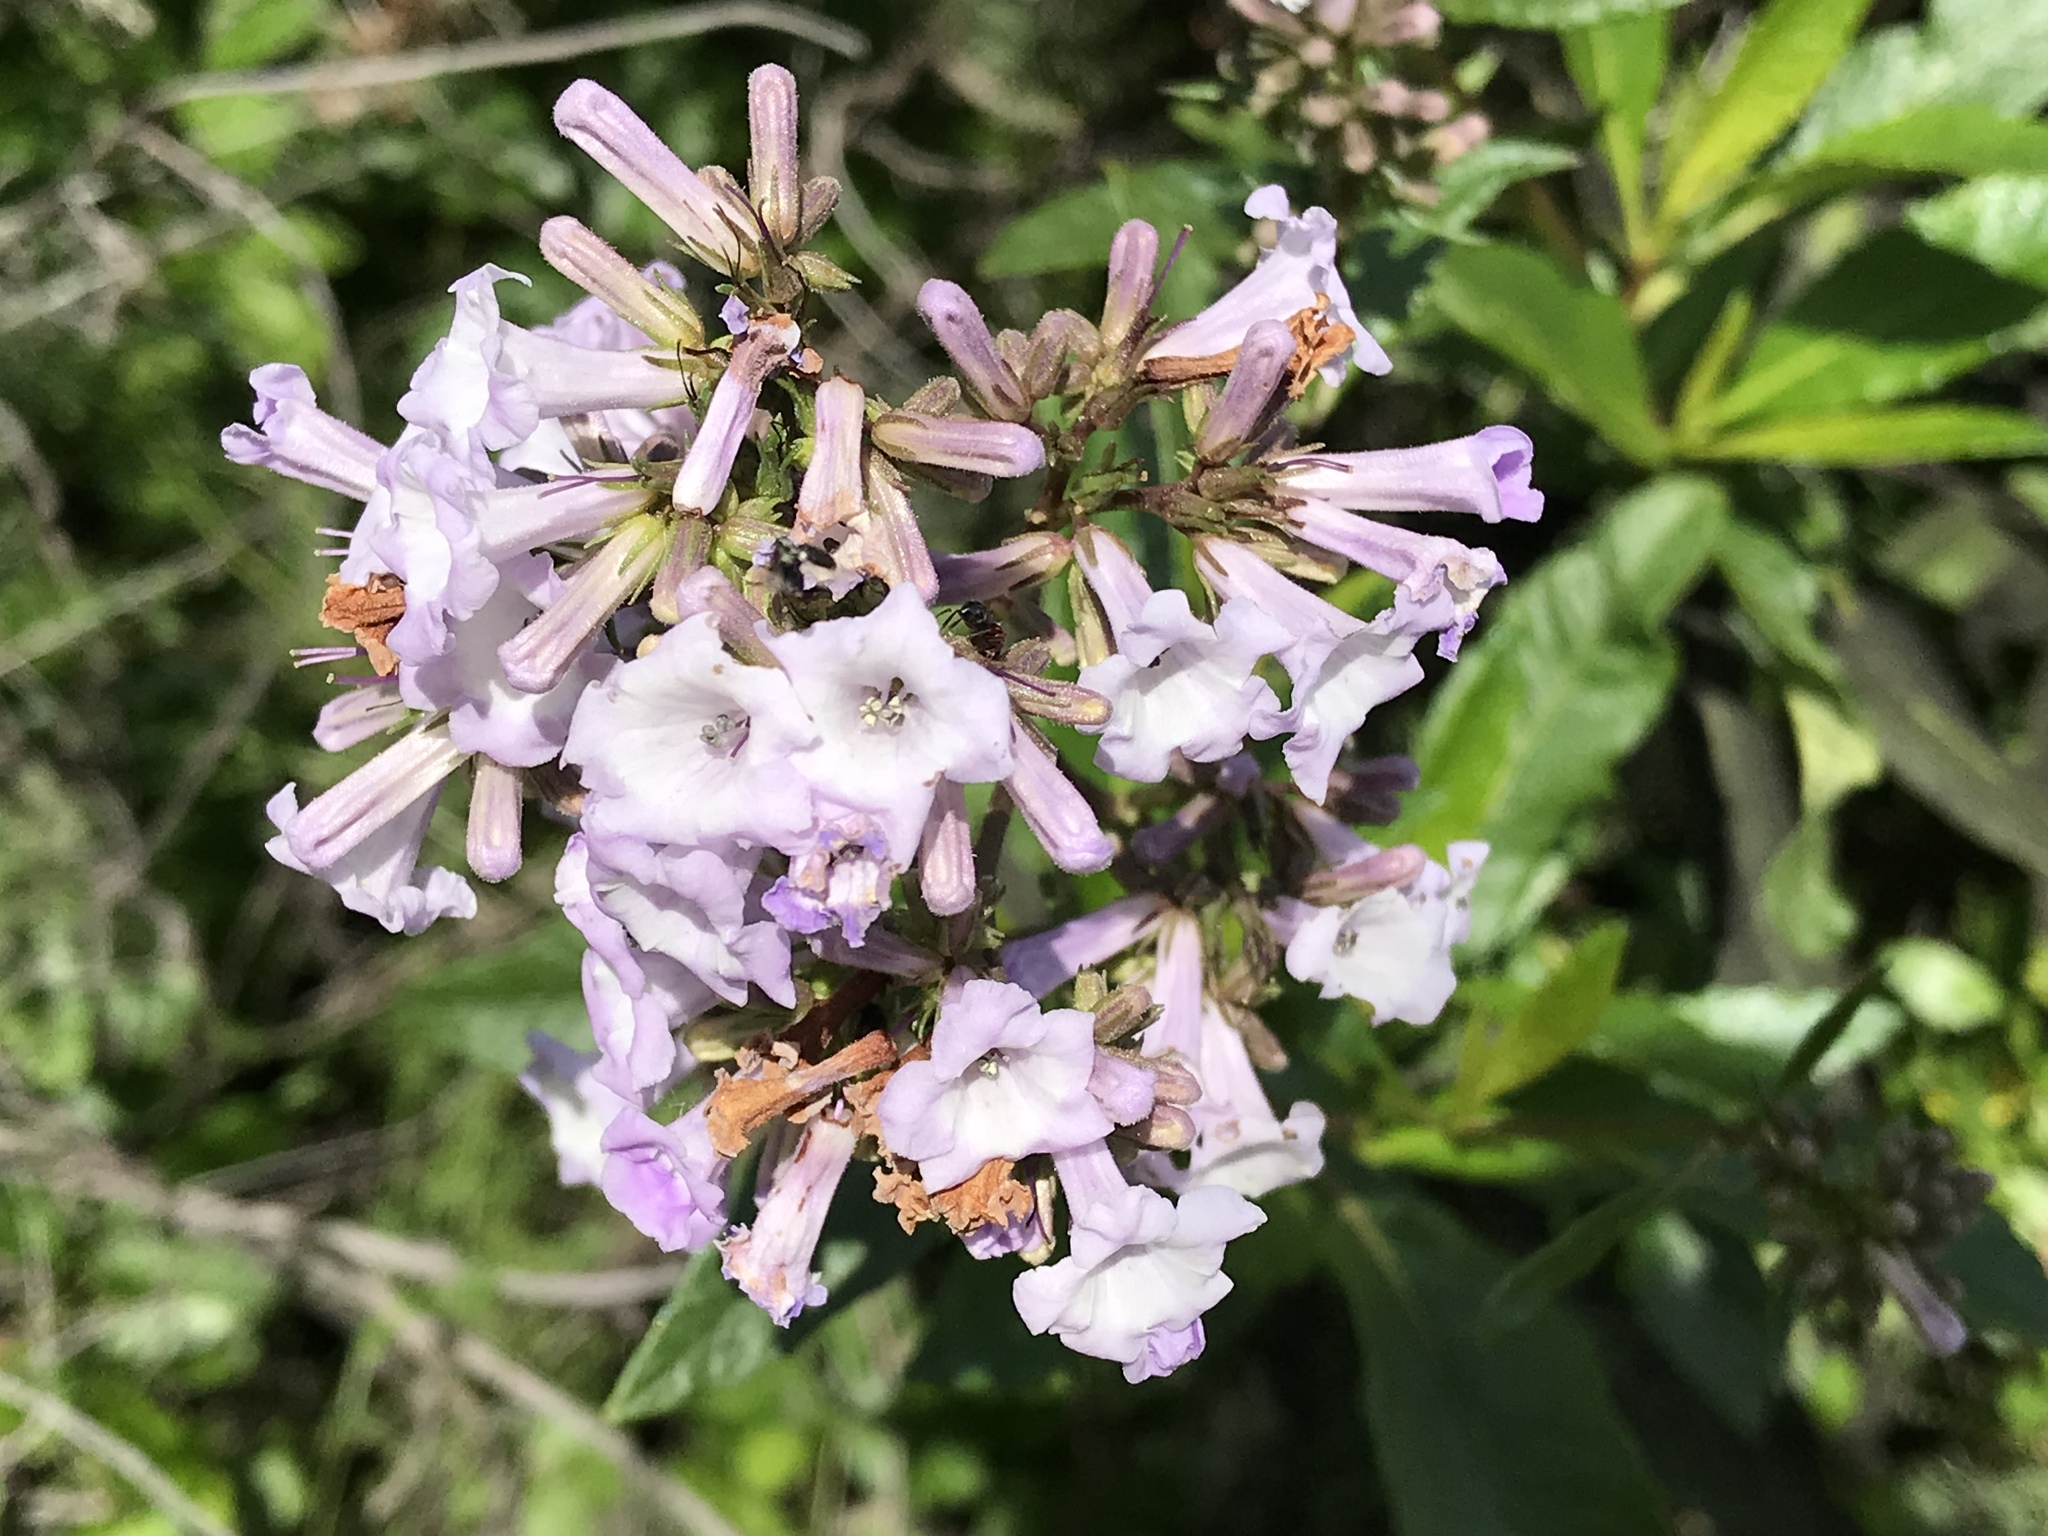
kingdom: Plantae
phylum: Tracheophyta
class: Magnoliopsida
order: Boraginales
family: Namaceae
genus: Eriodictyon
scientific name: Eriodictyon californicum
